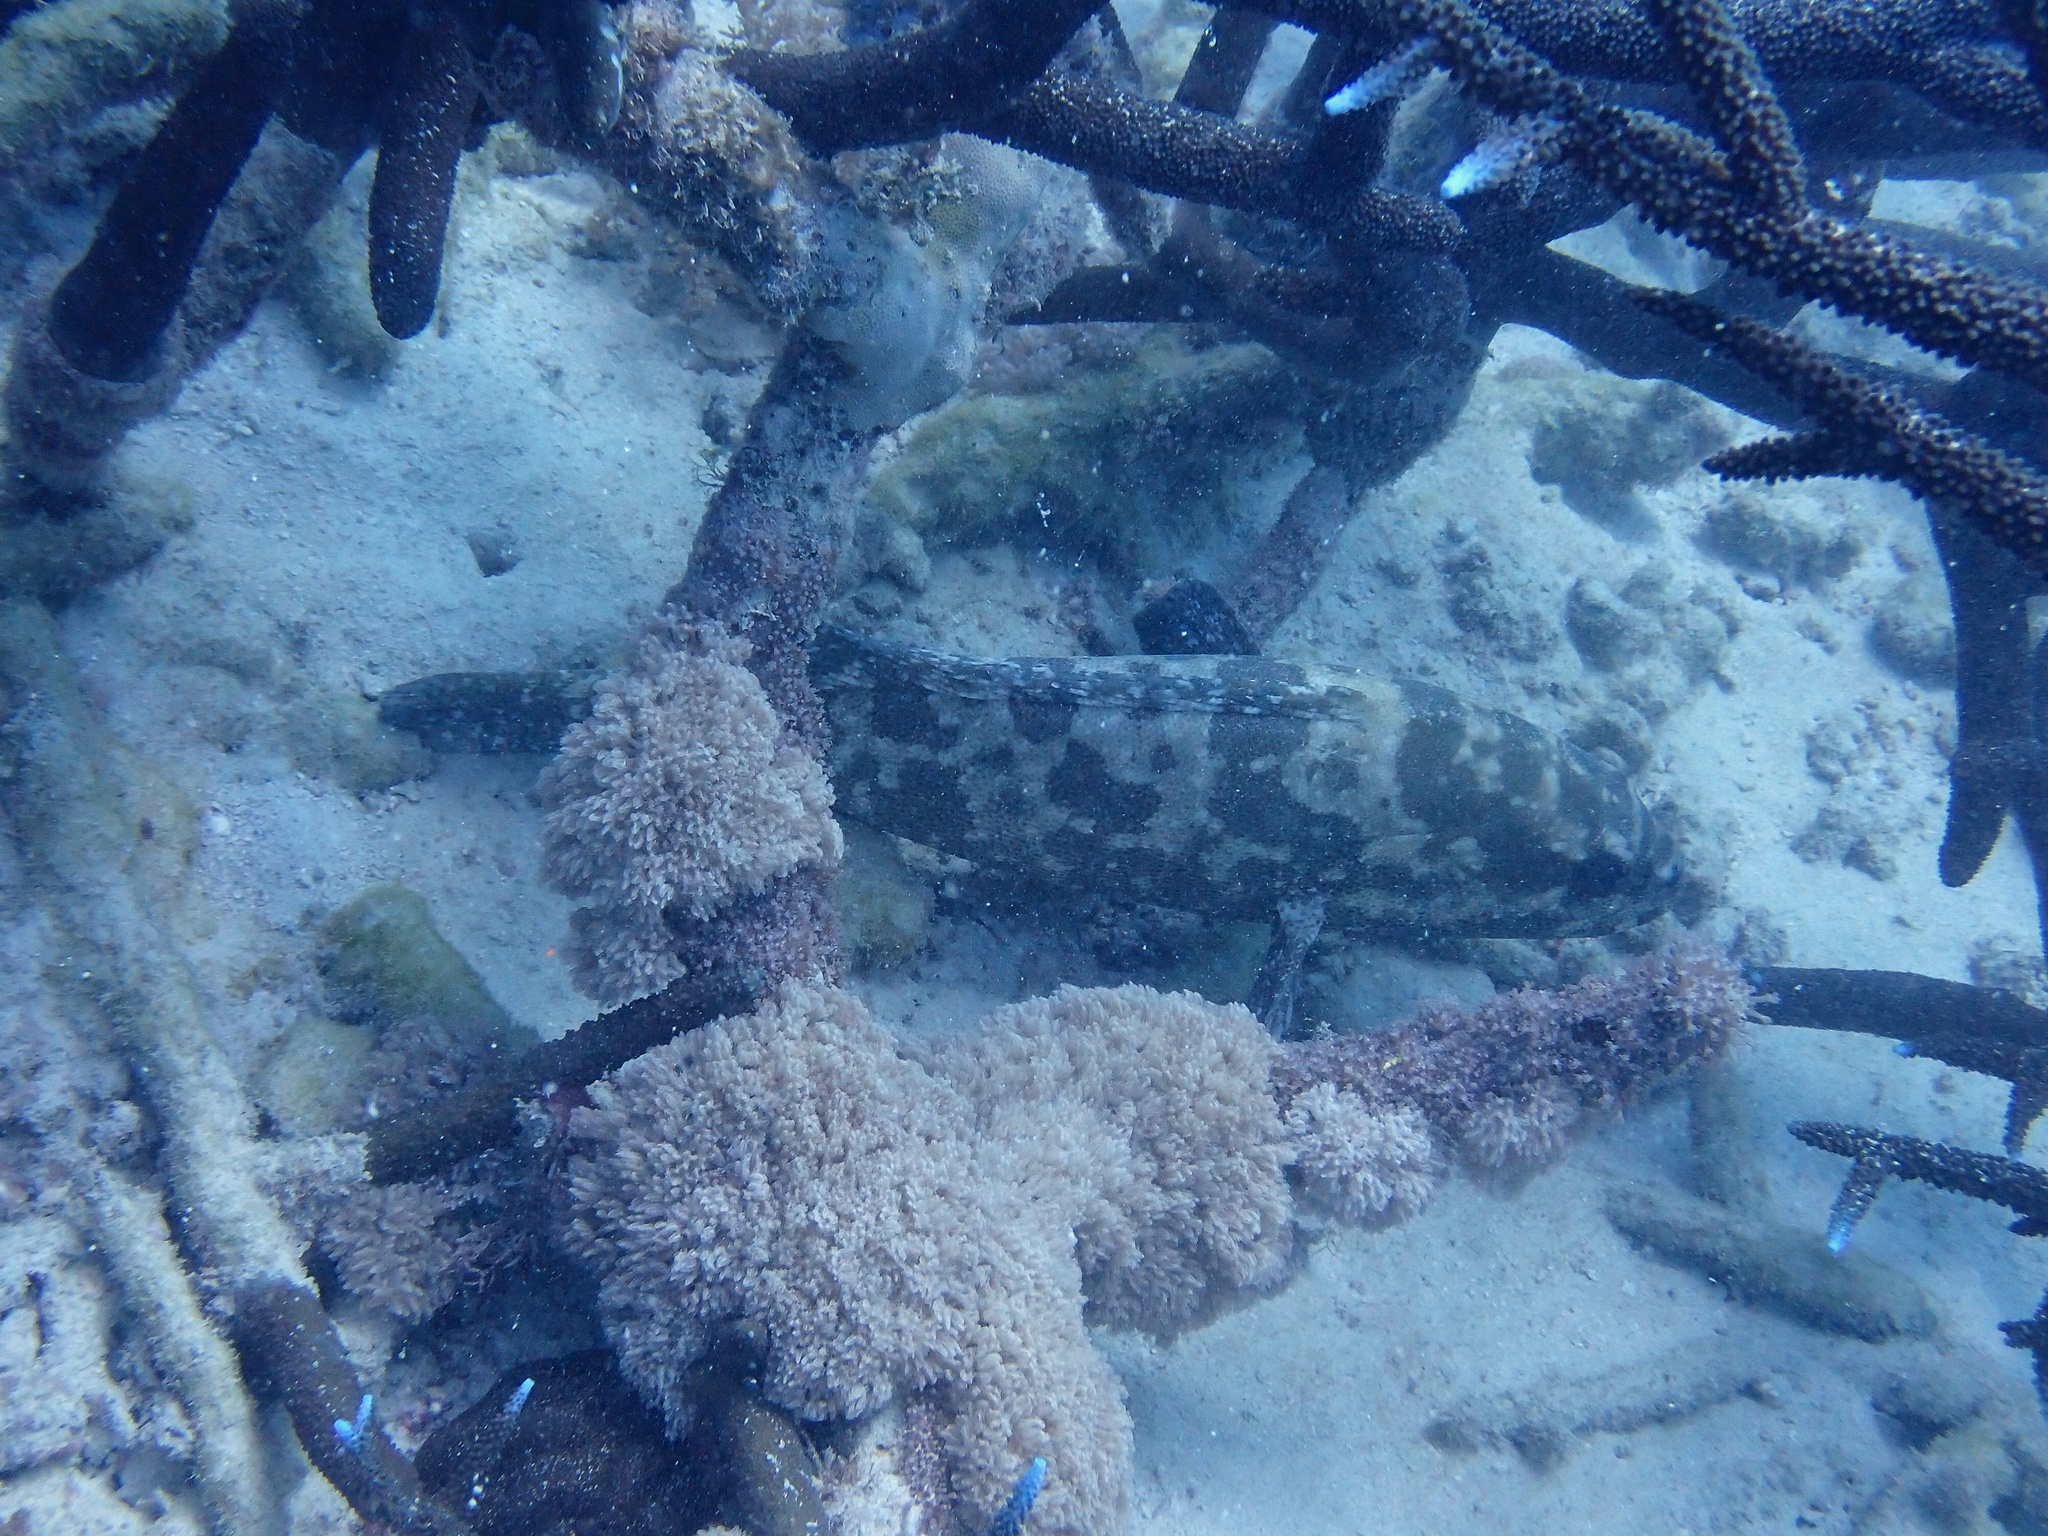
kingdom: Animalia
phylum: Chordata
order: Perciformes
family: Serranidae
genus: Epinephelus
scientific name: Epinephelus polyphekadion
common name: Camouflage grouper
